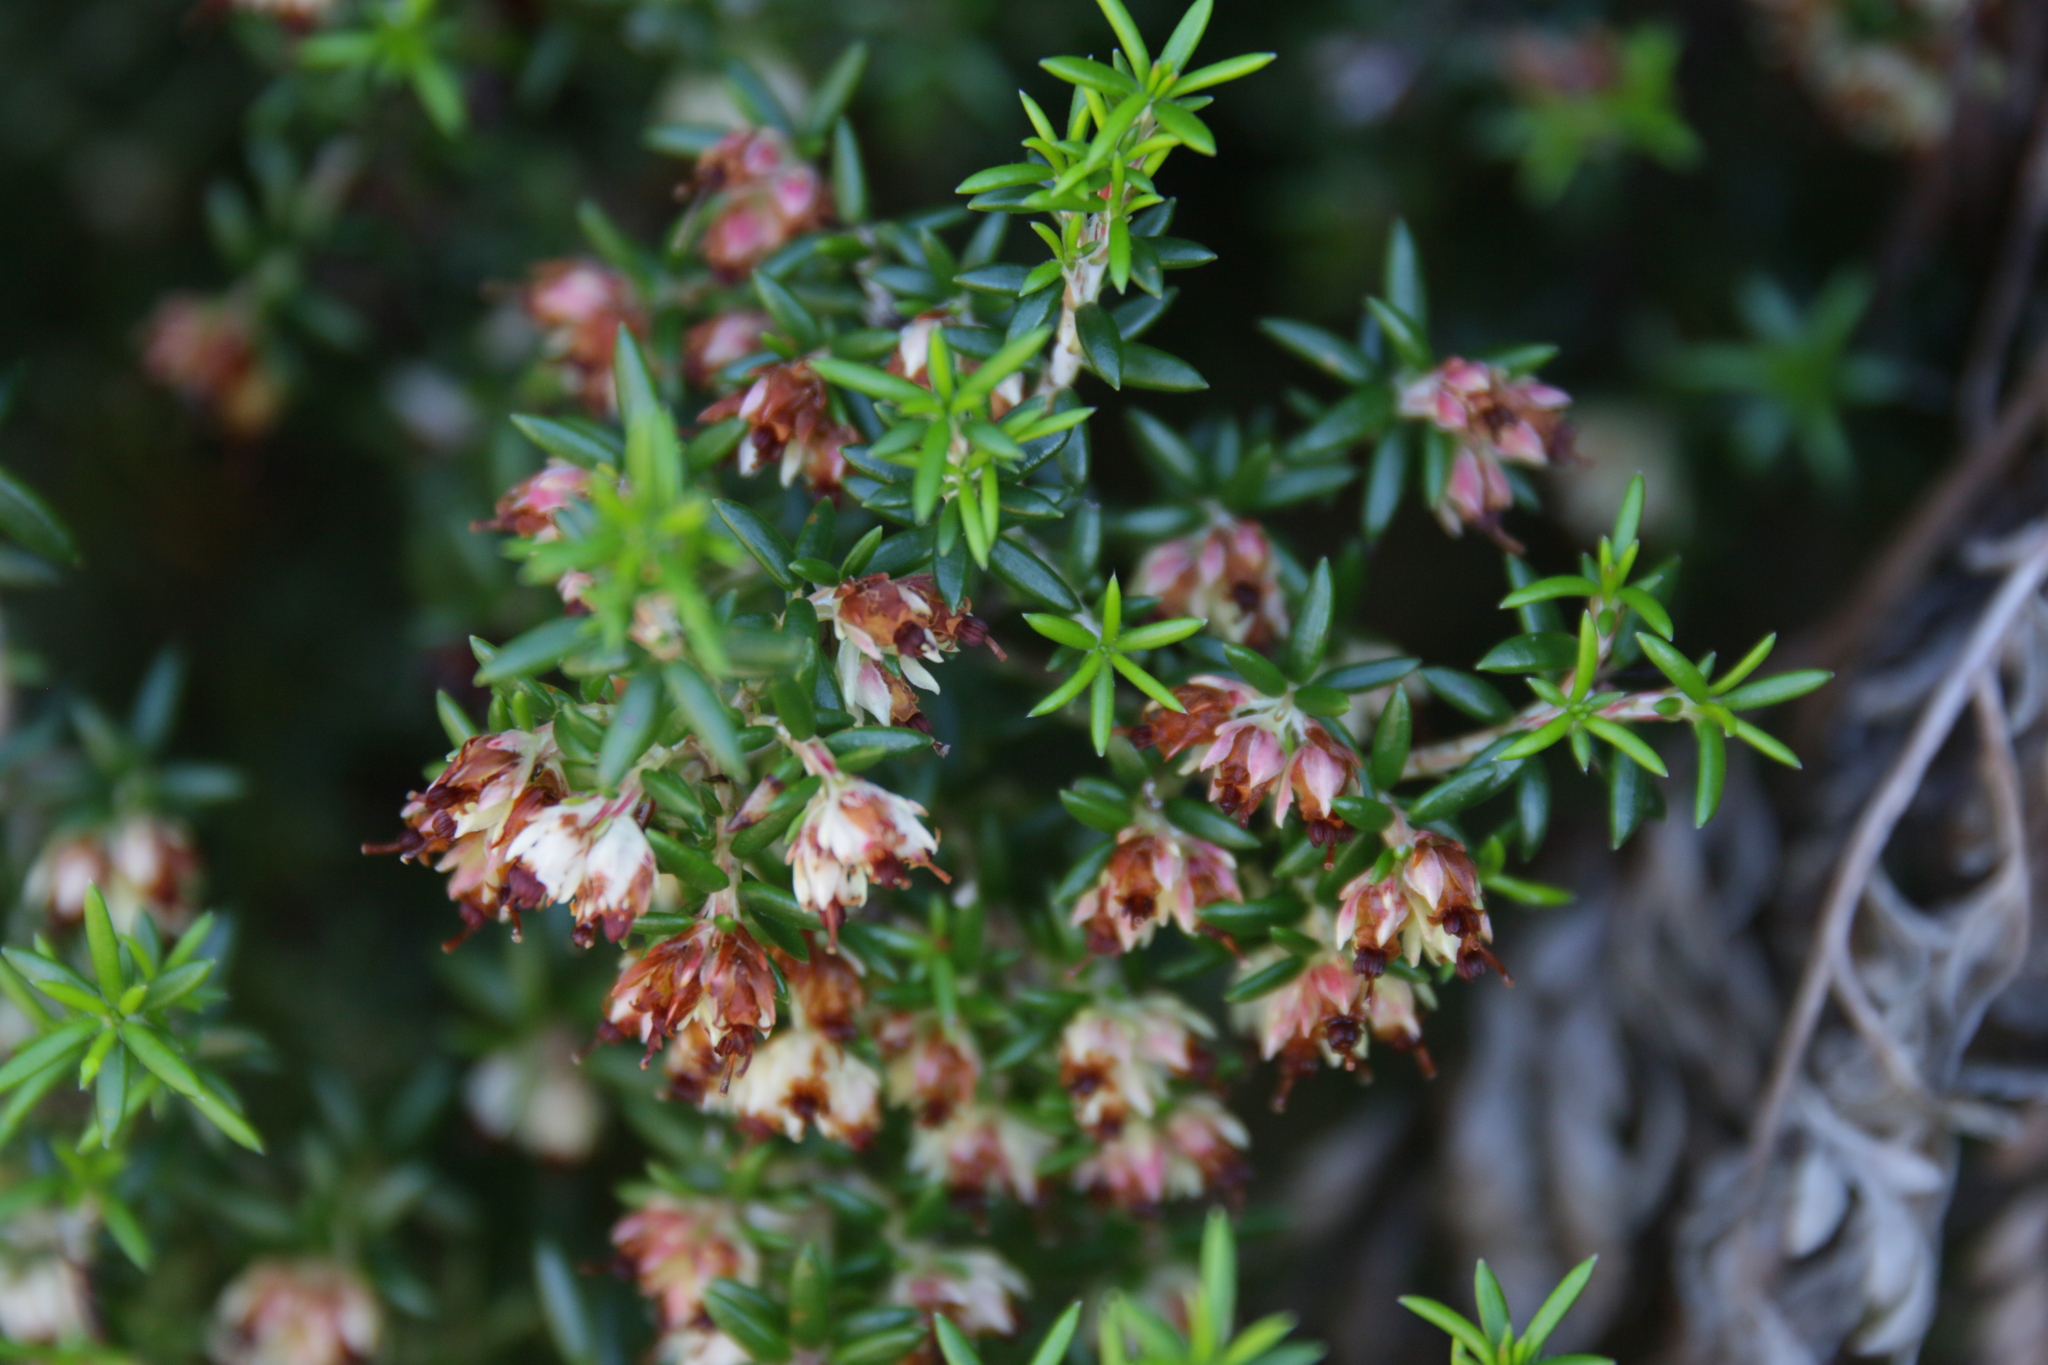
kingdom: Plantae
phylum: Tracheophyta
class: Magnoliopsida
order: Ericales
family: Ericaceae
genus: Erica
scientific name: Erica petiolaris
